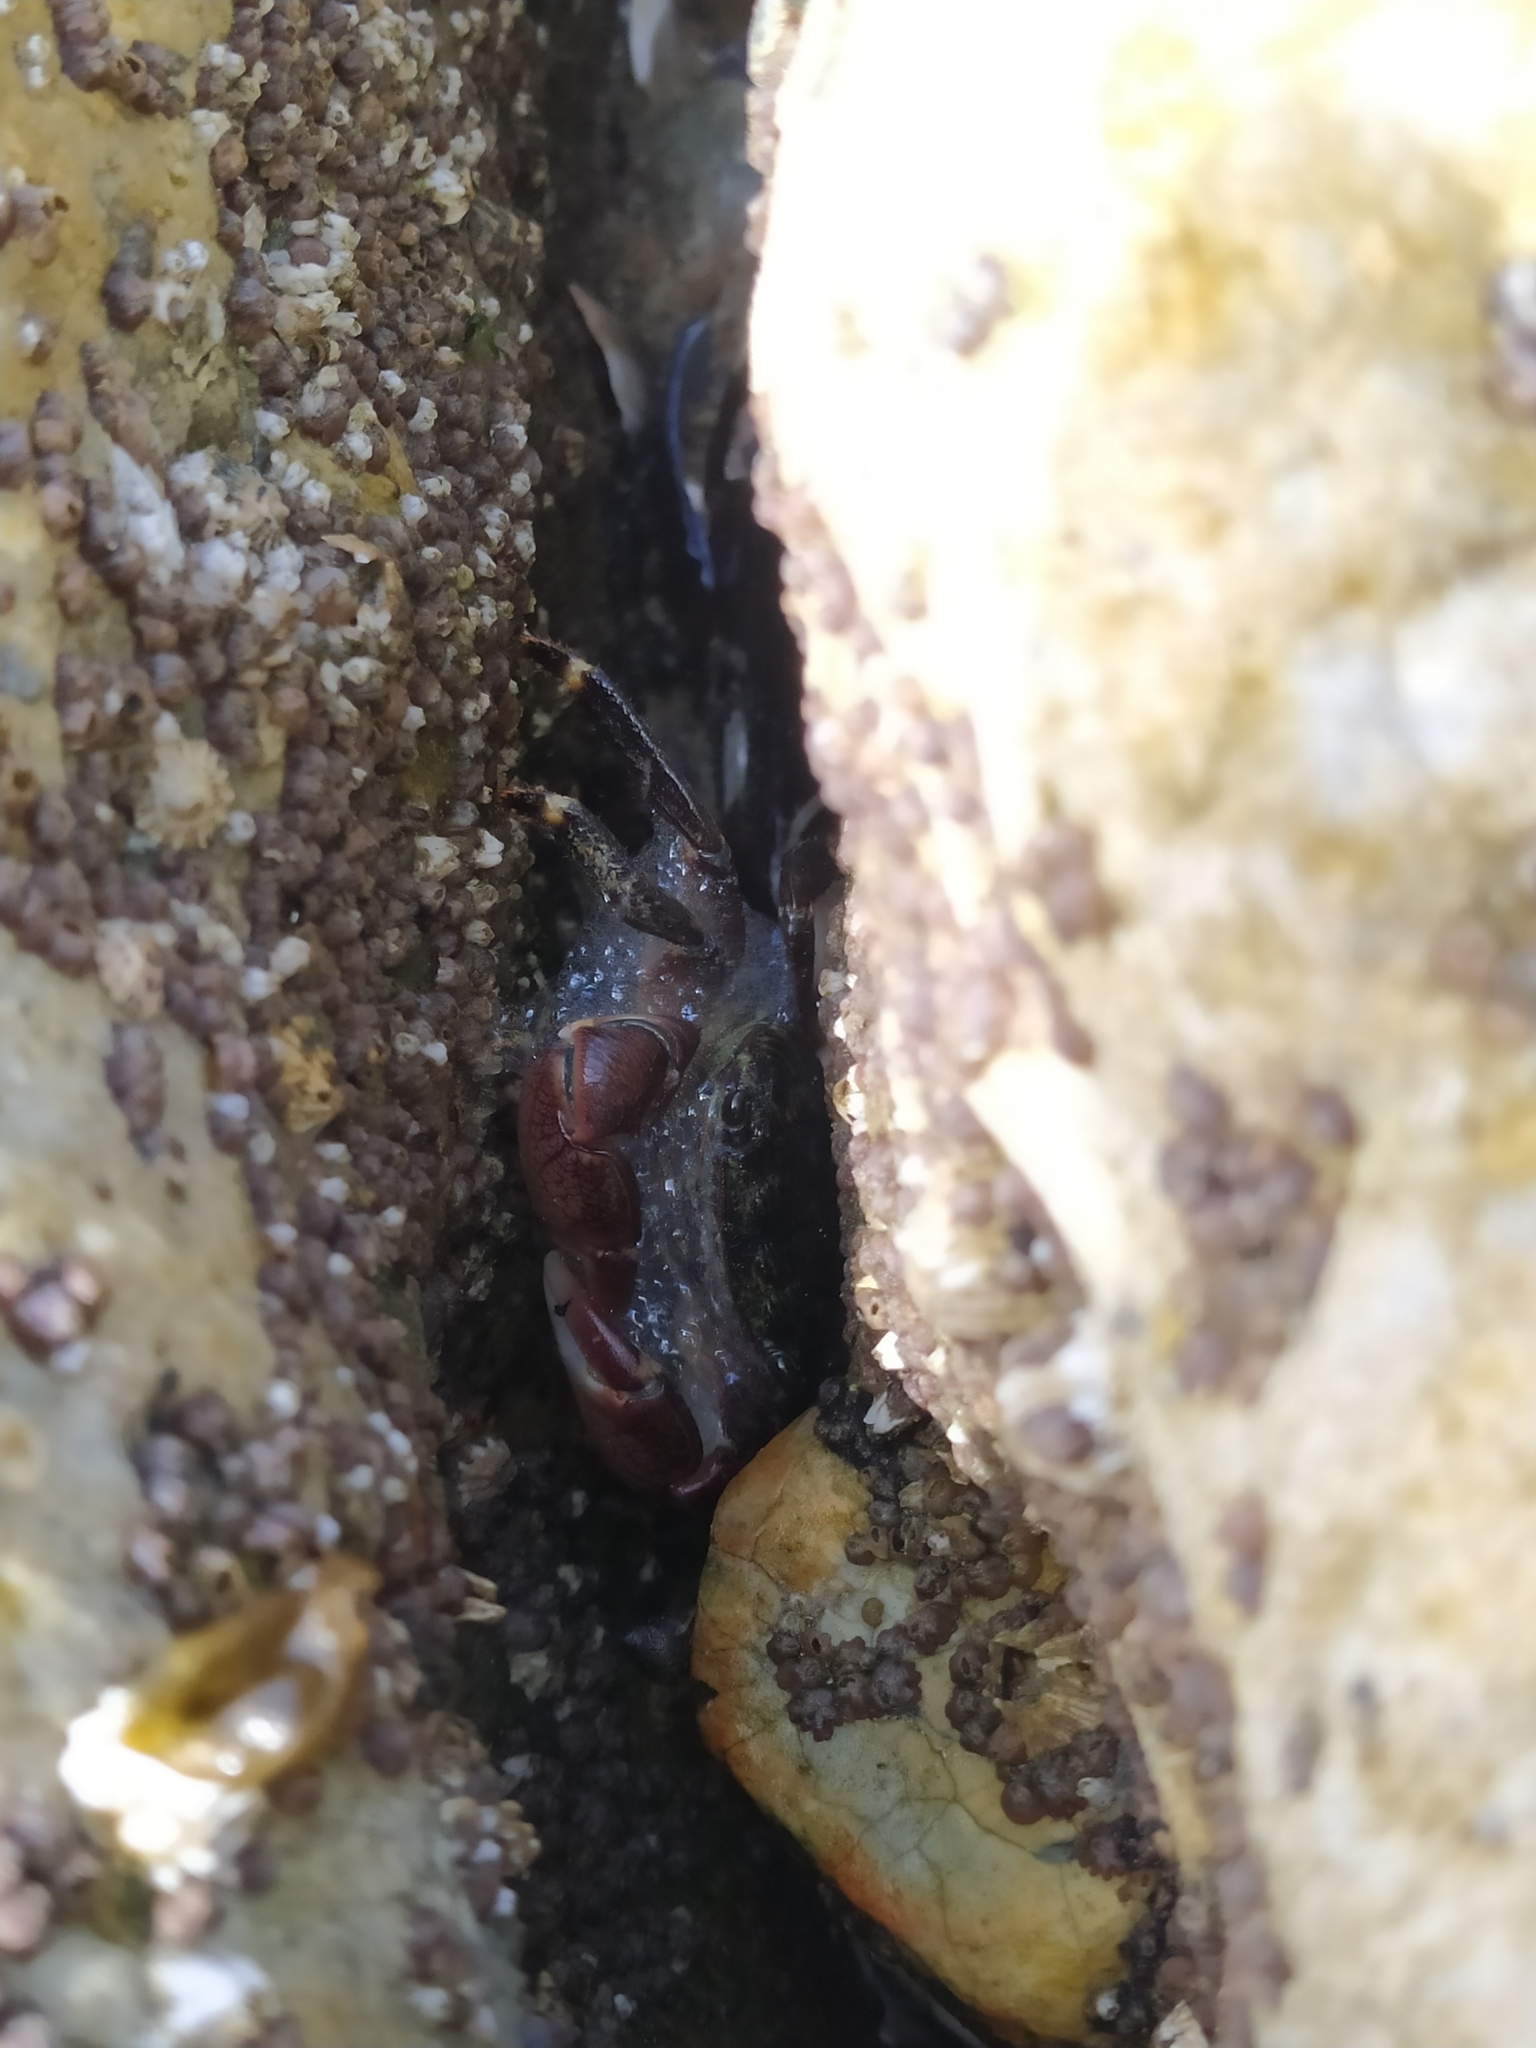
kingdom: Animalia
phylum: Arthropoda
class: Malacostraca
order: Decapoda
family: Grapsidae
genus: Pachygrapsus
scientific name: Pachygrapsus crassipes
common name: Striped shore crab
